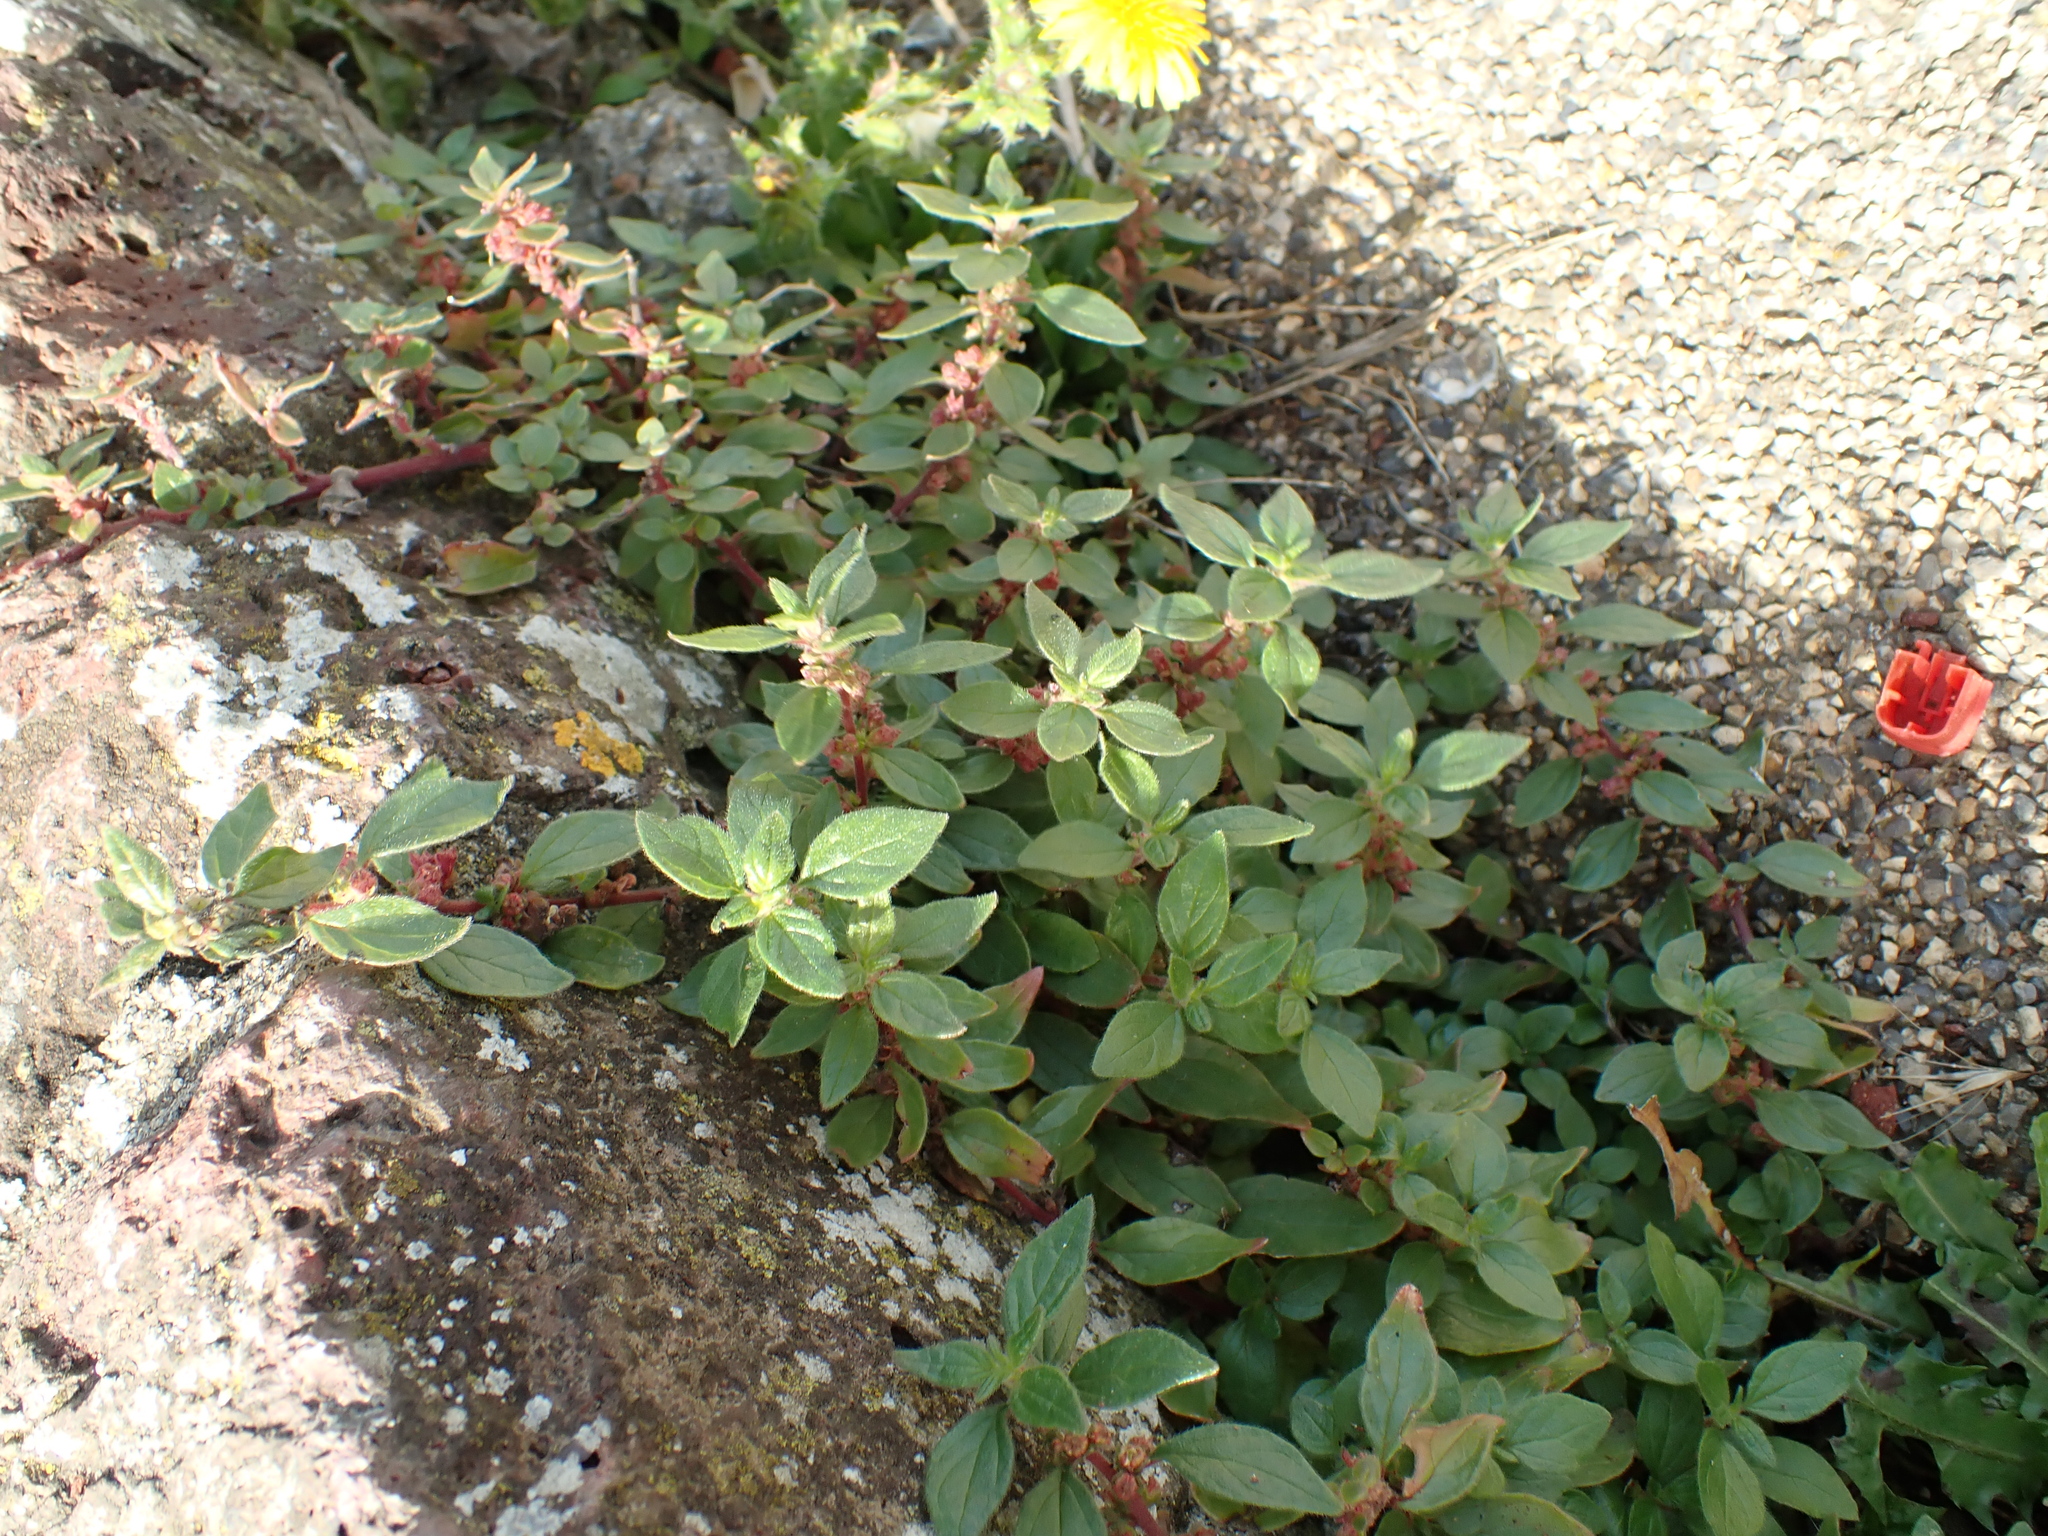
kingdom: Plantae
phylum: Tracheophyta
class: Magnoliopsida
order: Rosales
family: Urticaceae
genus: Parietaria
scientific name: Parietaria judaica
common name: Pellitory-of-the-wall
